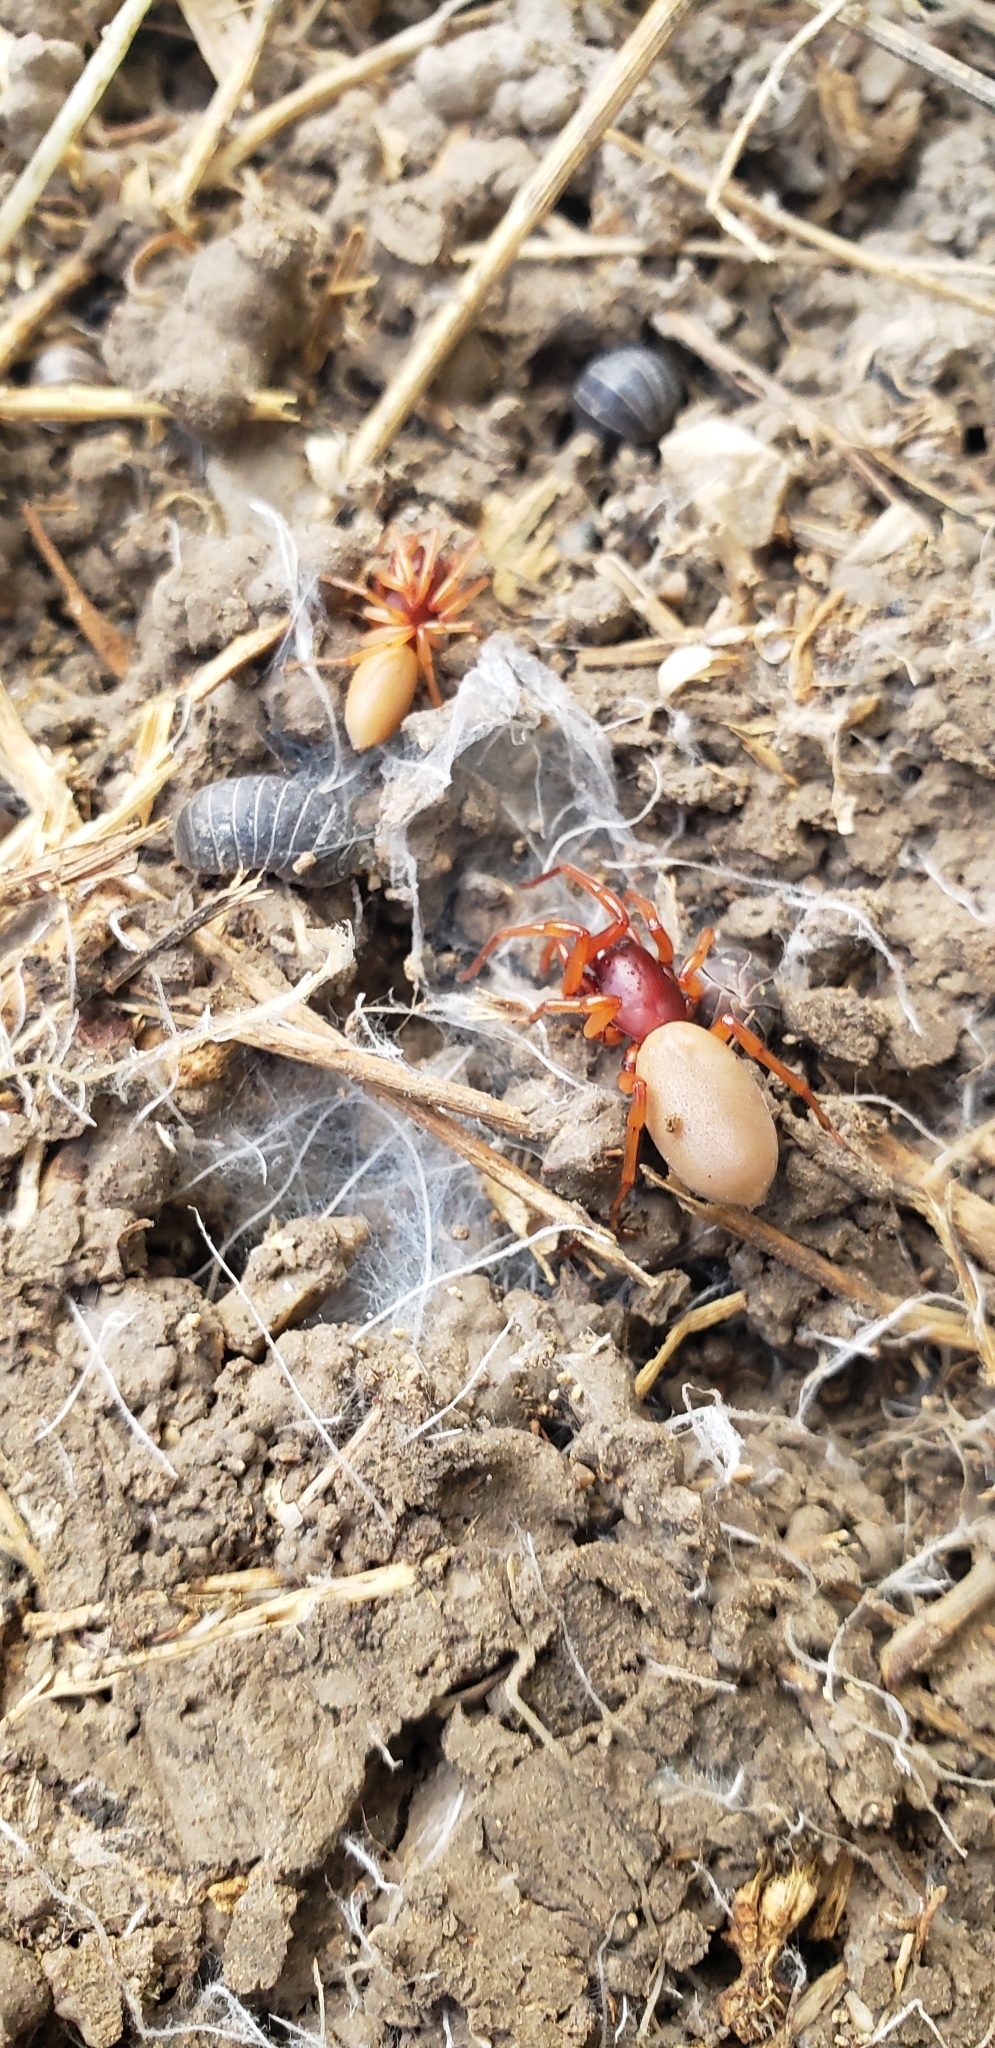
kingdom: Animalia
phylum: Arthropoda
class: Arachnida
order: Araneae
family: Dysderidae
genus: Dysdera
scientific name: Dysdera crocata
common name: Woodlouse spider
